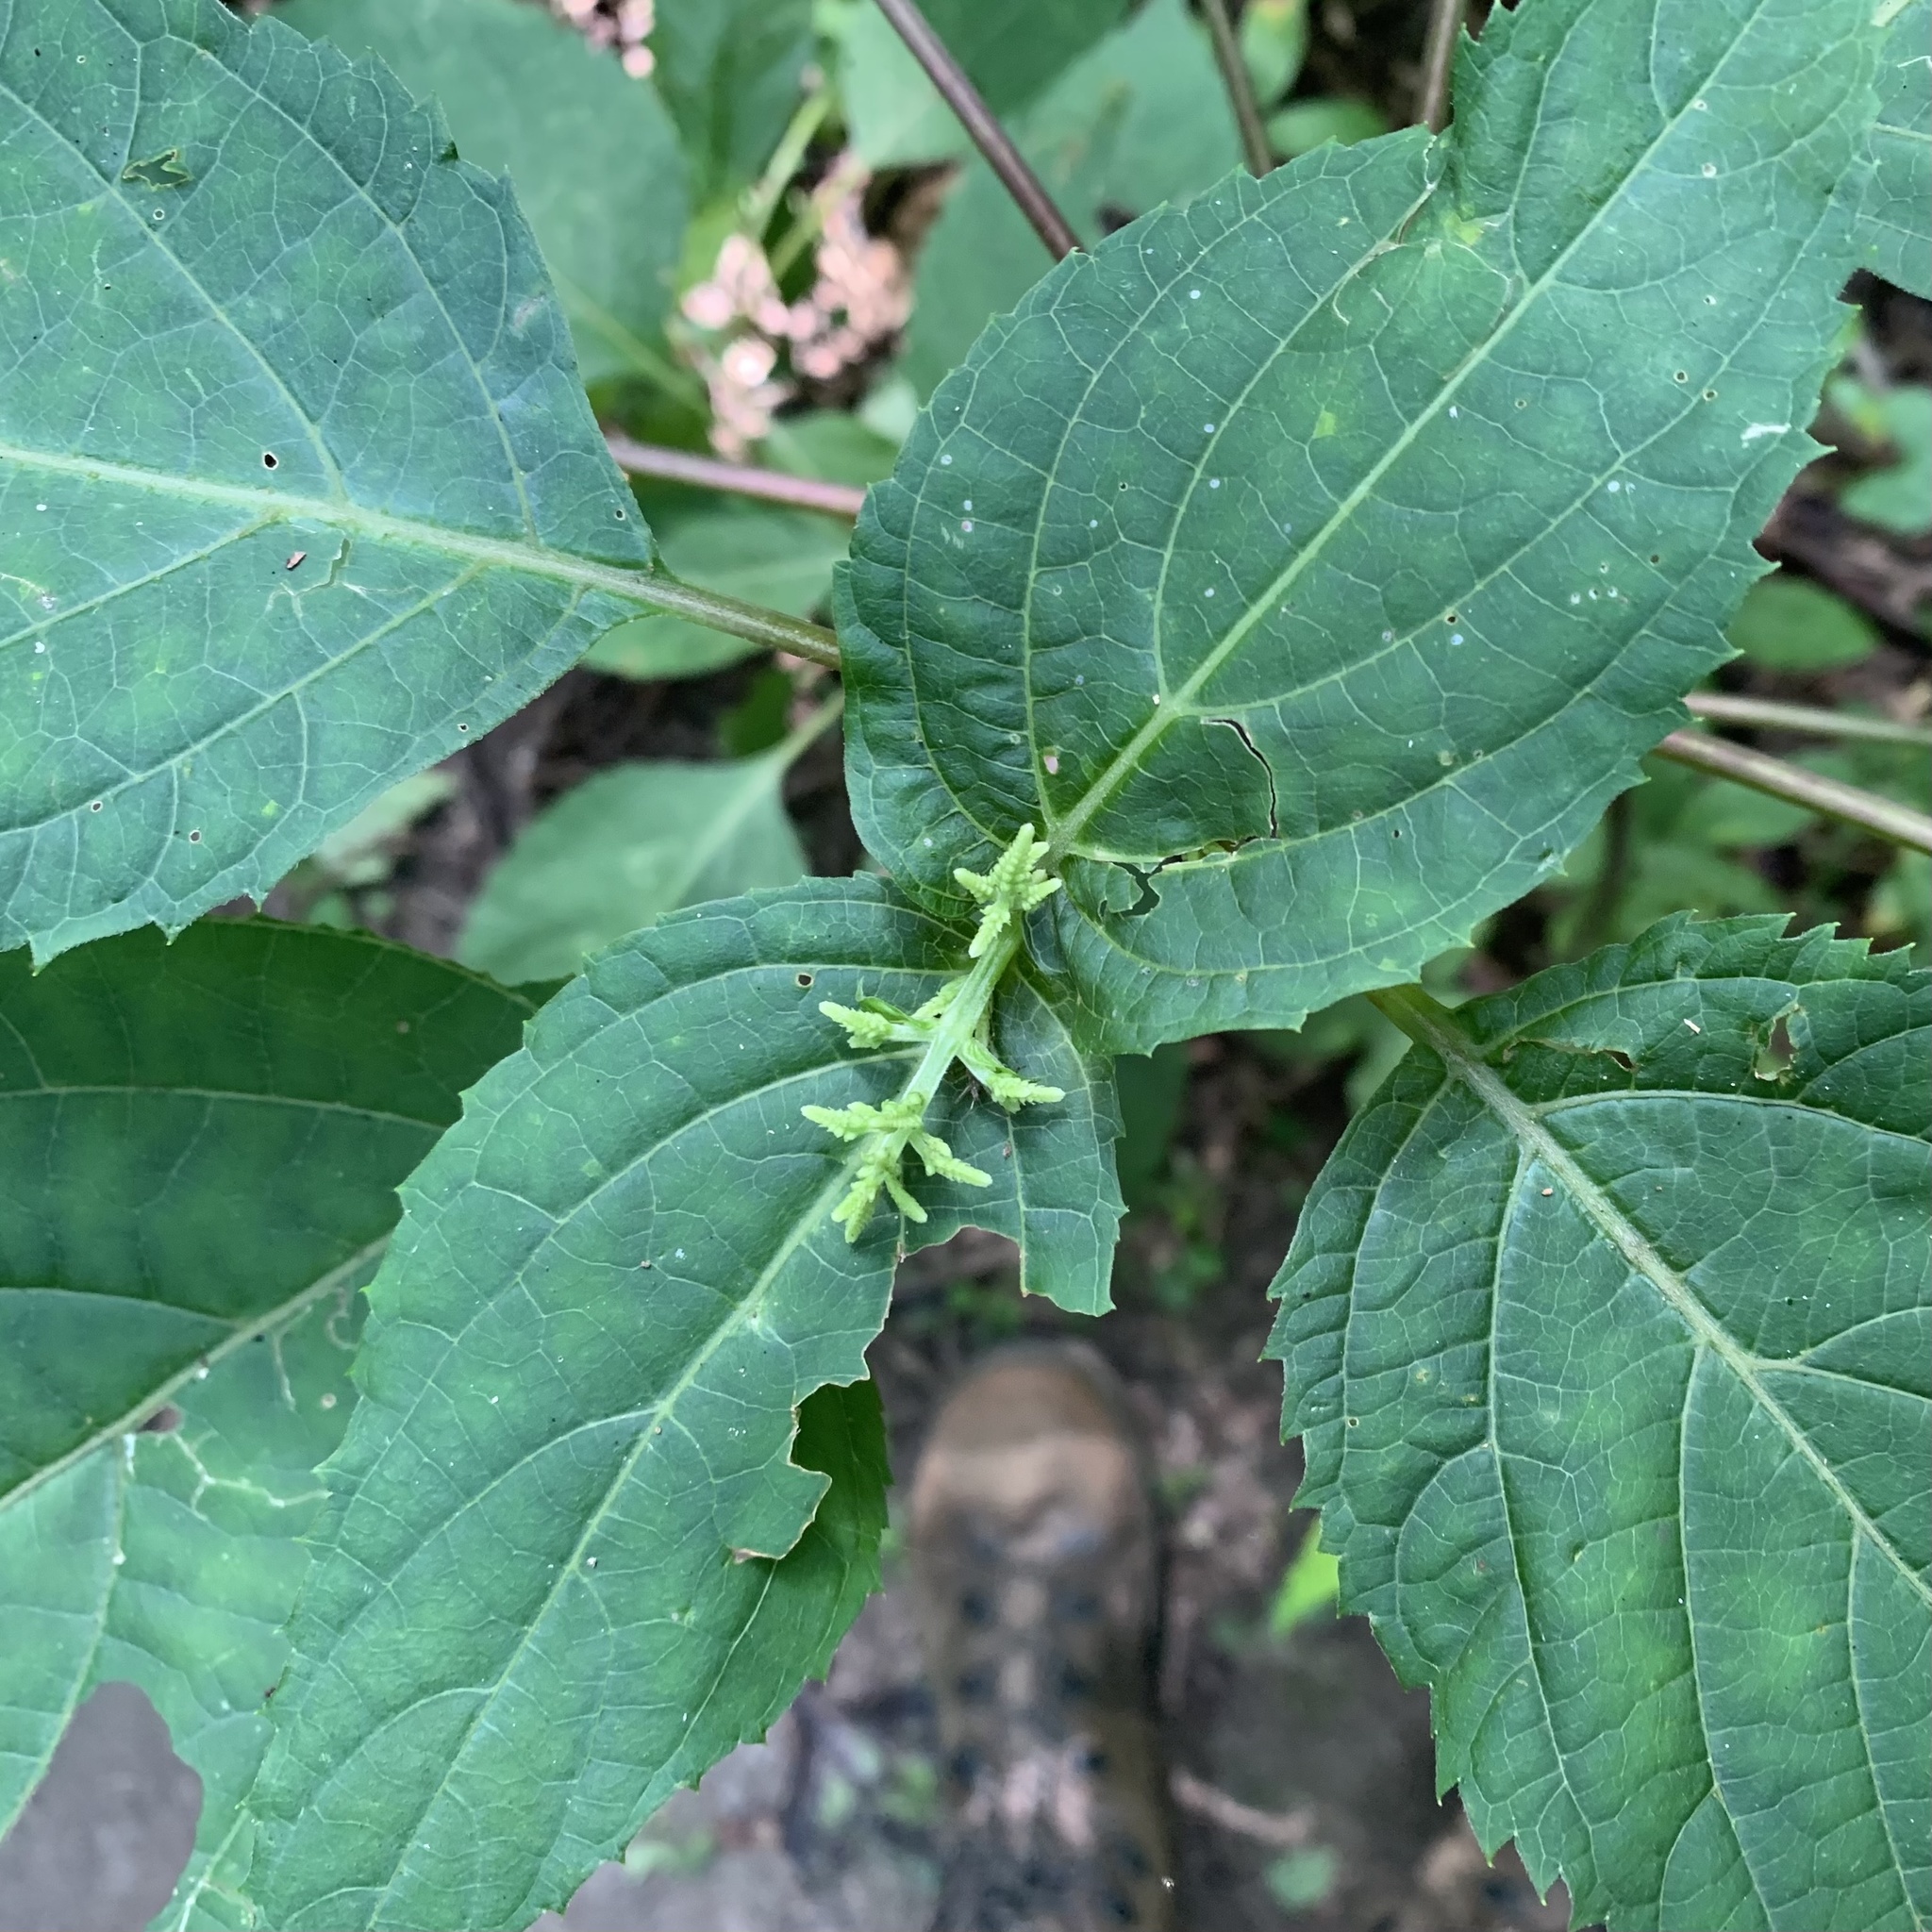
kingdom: Plantae
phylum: Tracheophyta
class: Magnoliopsida
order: Lamiales
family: Lamiaceae
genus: Collinsonia
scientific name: Collinsonia canadensis
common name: Northern horsebalm
